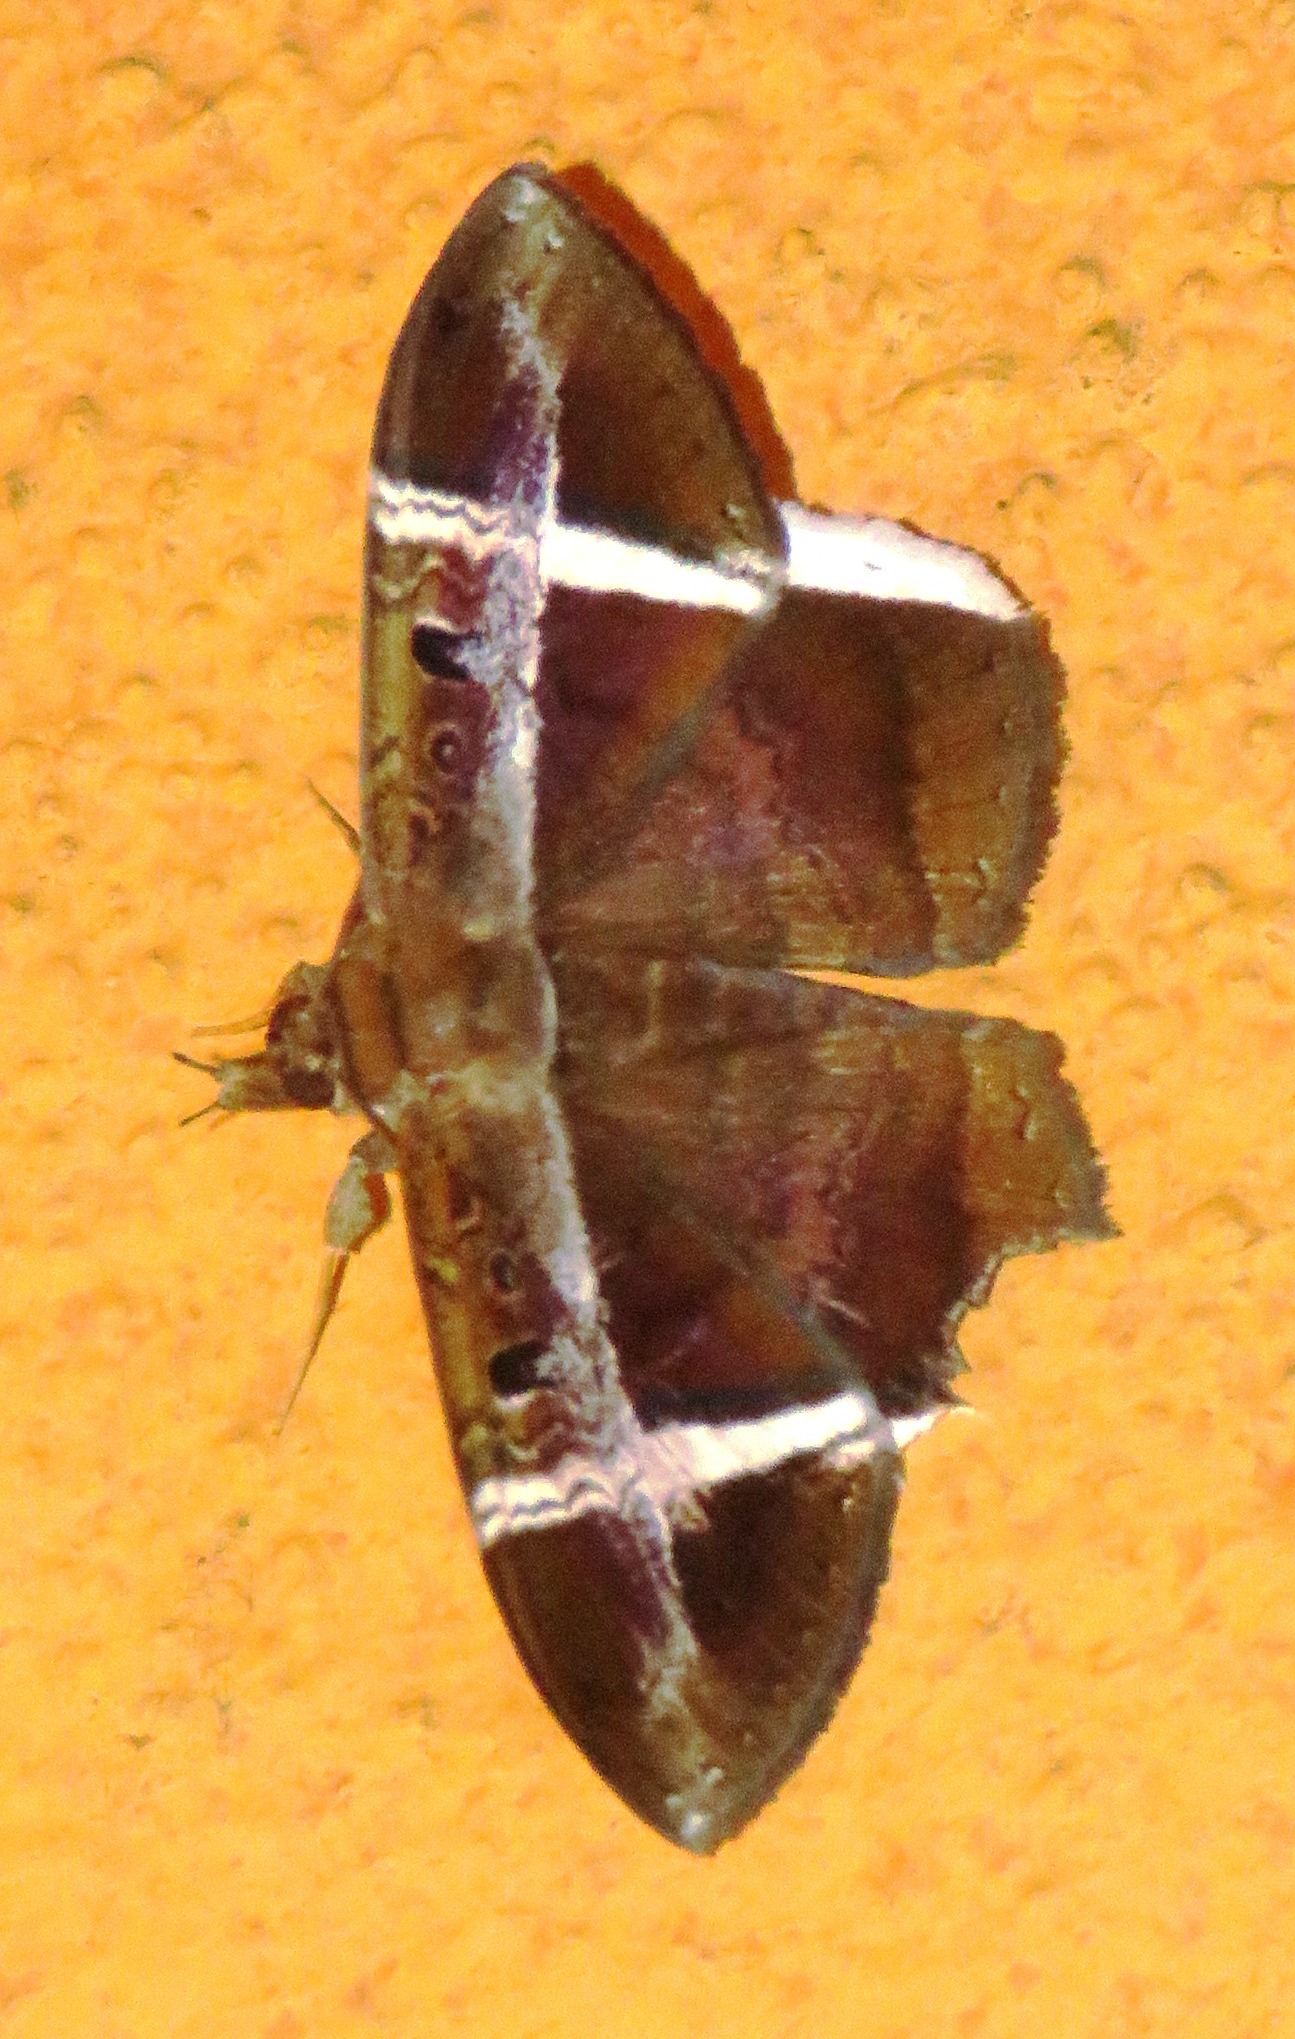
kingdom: Animalia
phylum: Arthropoda
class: Insecta
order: Lepidoptera
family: Erebidae
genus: Hemeroblemma
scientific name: Hemeroblemma mexicana
